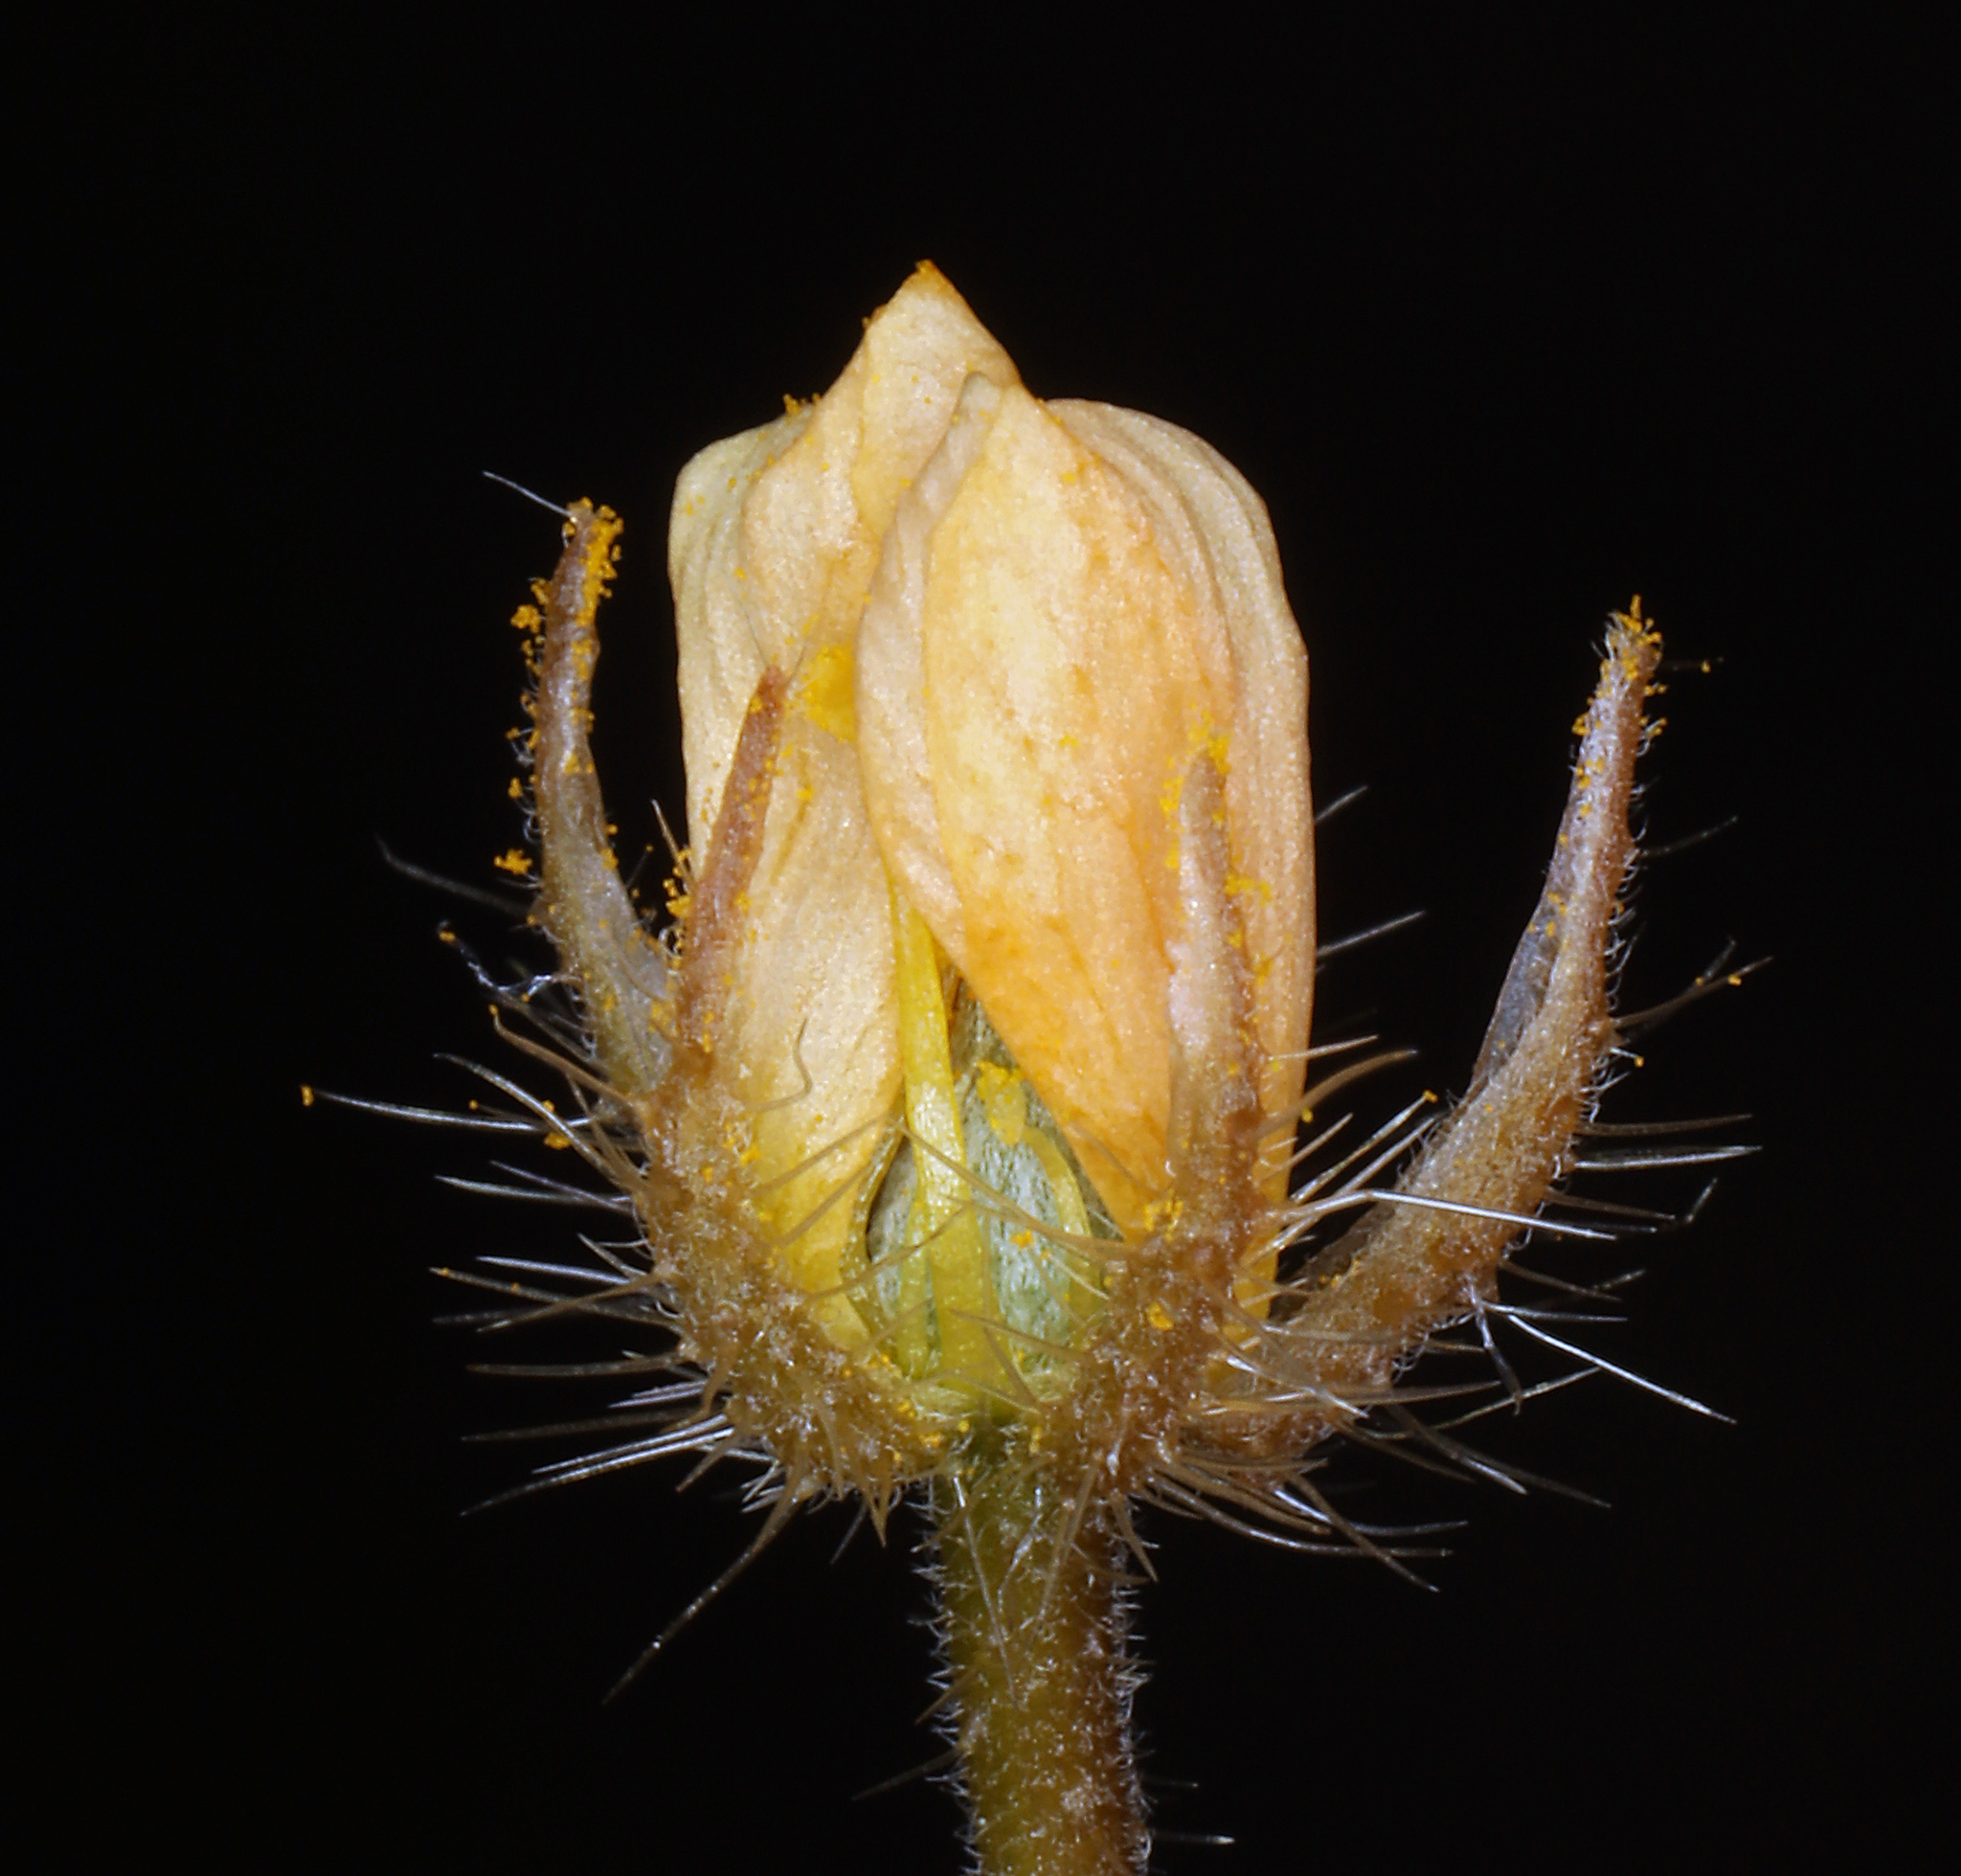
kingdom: Plantae
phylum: Tracheophyta
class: Magnoliopsida
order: Zygophyllales
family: Zygophyllaceae
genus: Kallstroemia
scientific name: Kallstroemia parviflora
